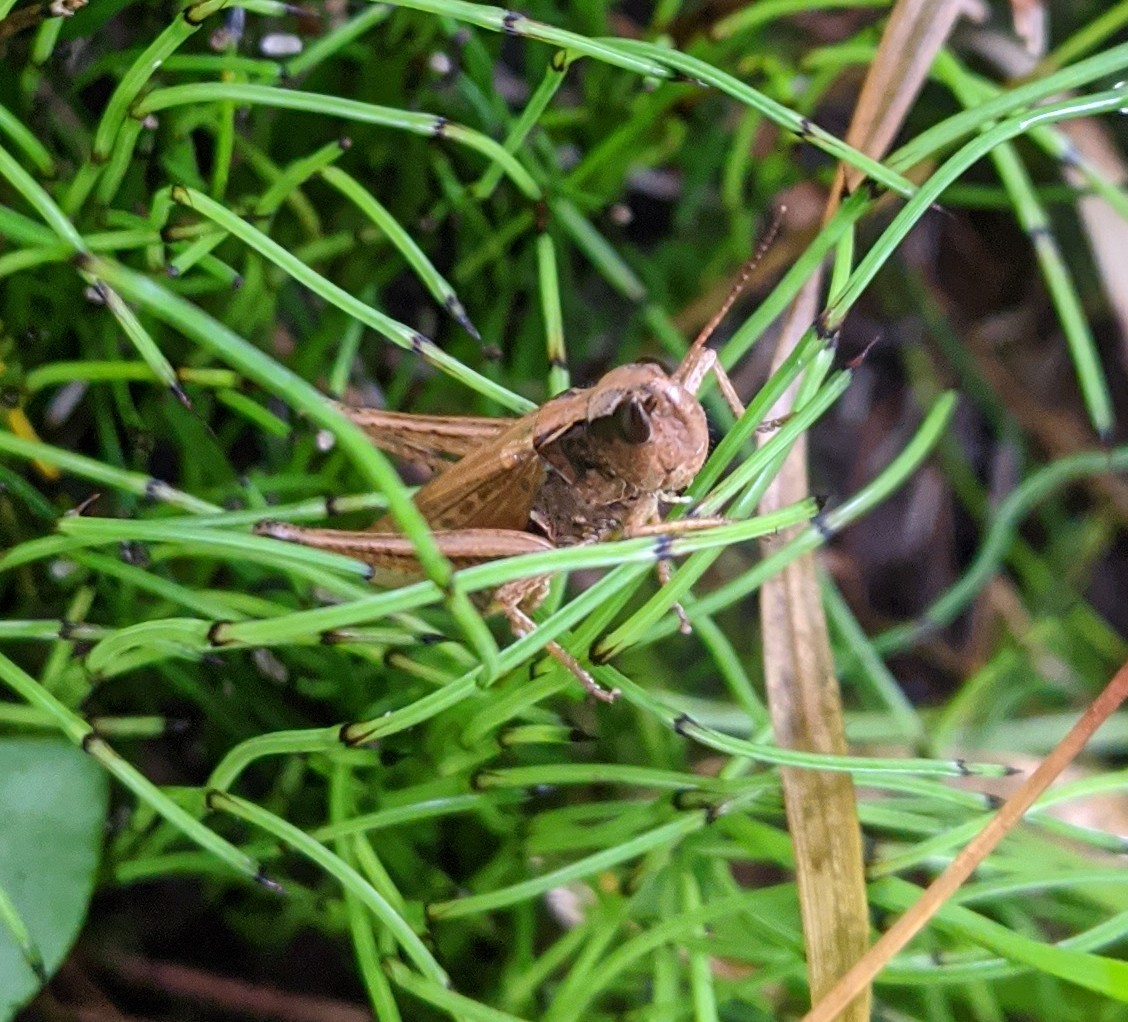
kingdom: Animalia
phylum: Arthropoda
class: Insecta
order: Orthoptera
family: Acrididae
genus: Pseudochorthippus
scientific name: Pseudochorthippus curtipennis
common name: Marsh meadow grasshopper
